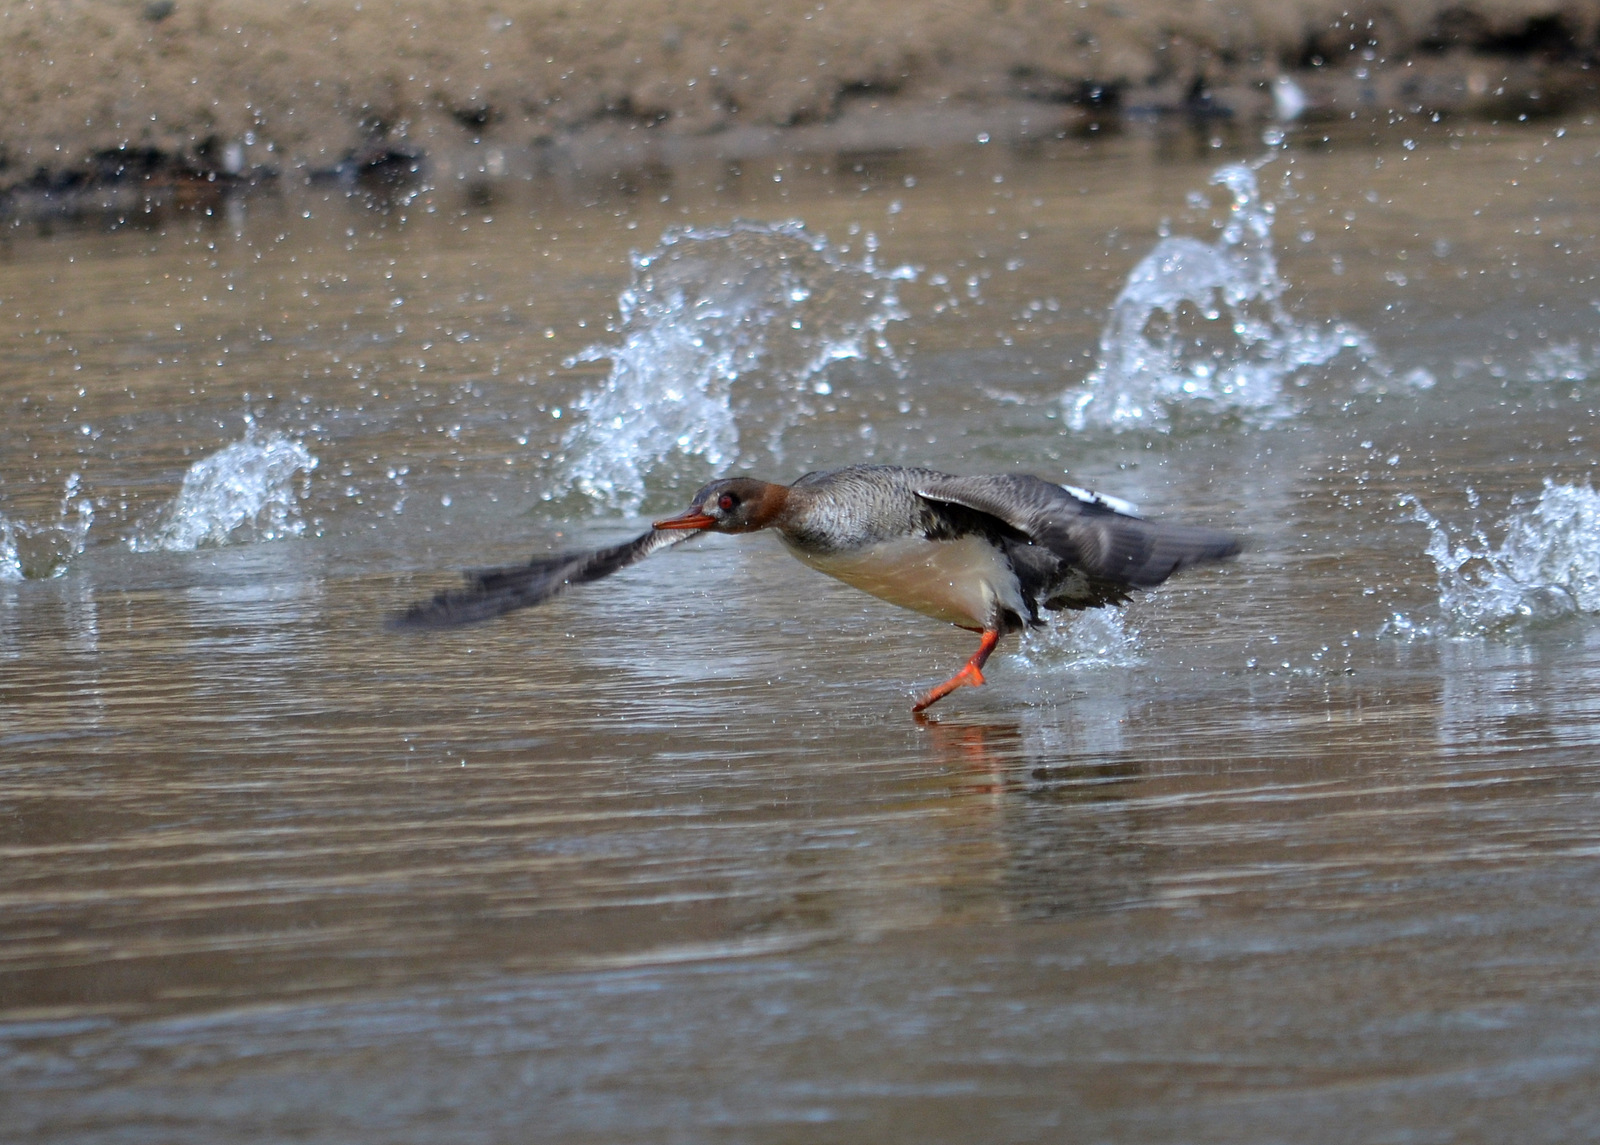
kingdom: Animalia
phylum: Chordata
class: Aves
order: Anseriformes
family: Anatidae
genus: Mergus
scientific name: Mergus merganser
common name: Common merganser
